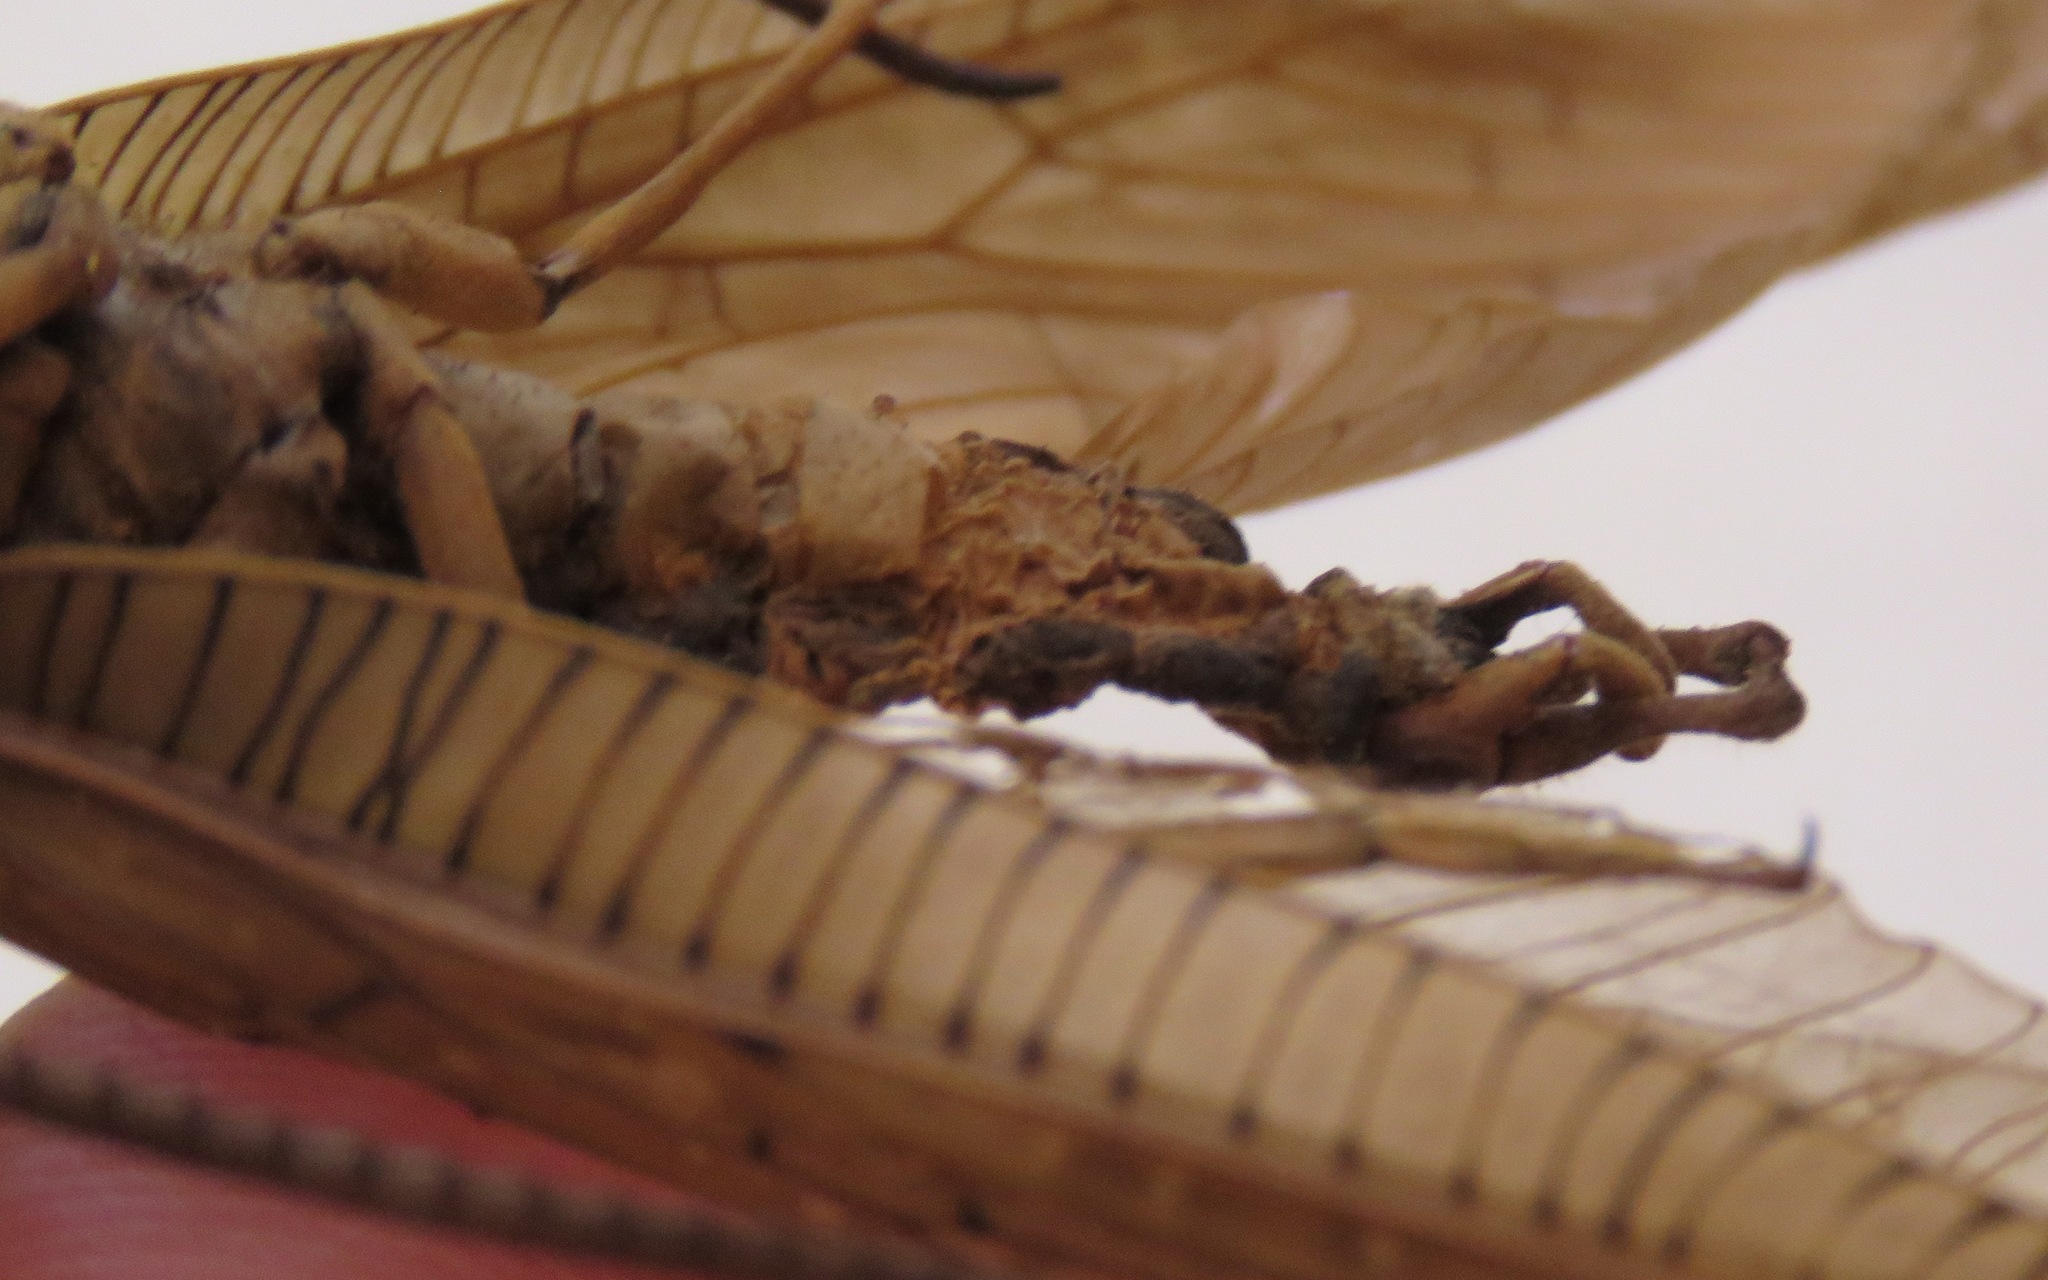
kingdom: Animalia
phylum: Arthropoda
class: Insecta
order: Megaloptera
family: Corydalidae
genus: Corydalus
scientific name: Corydalus peruvianus
